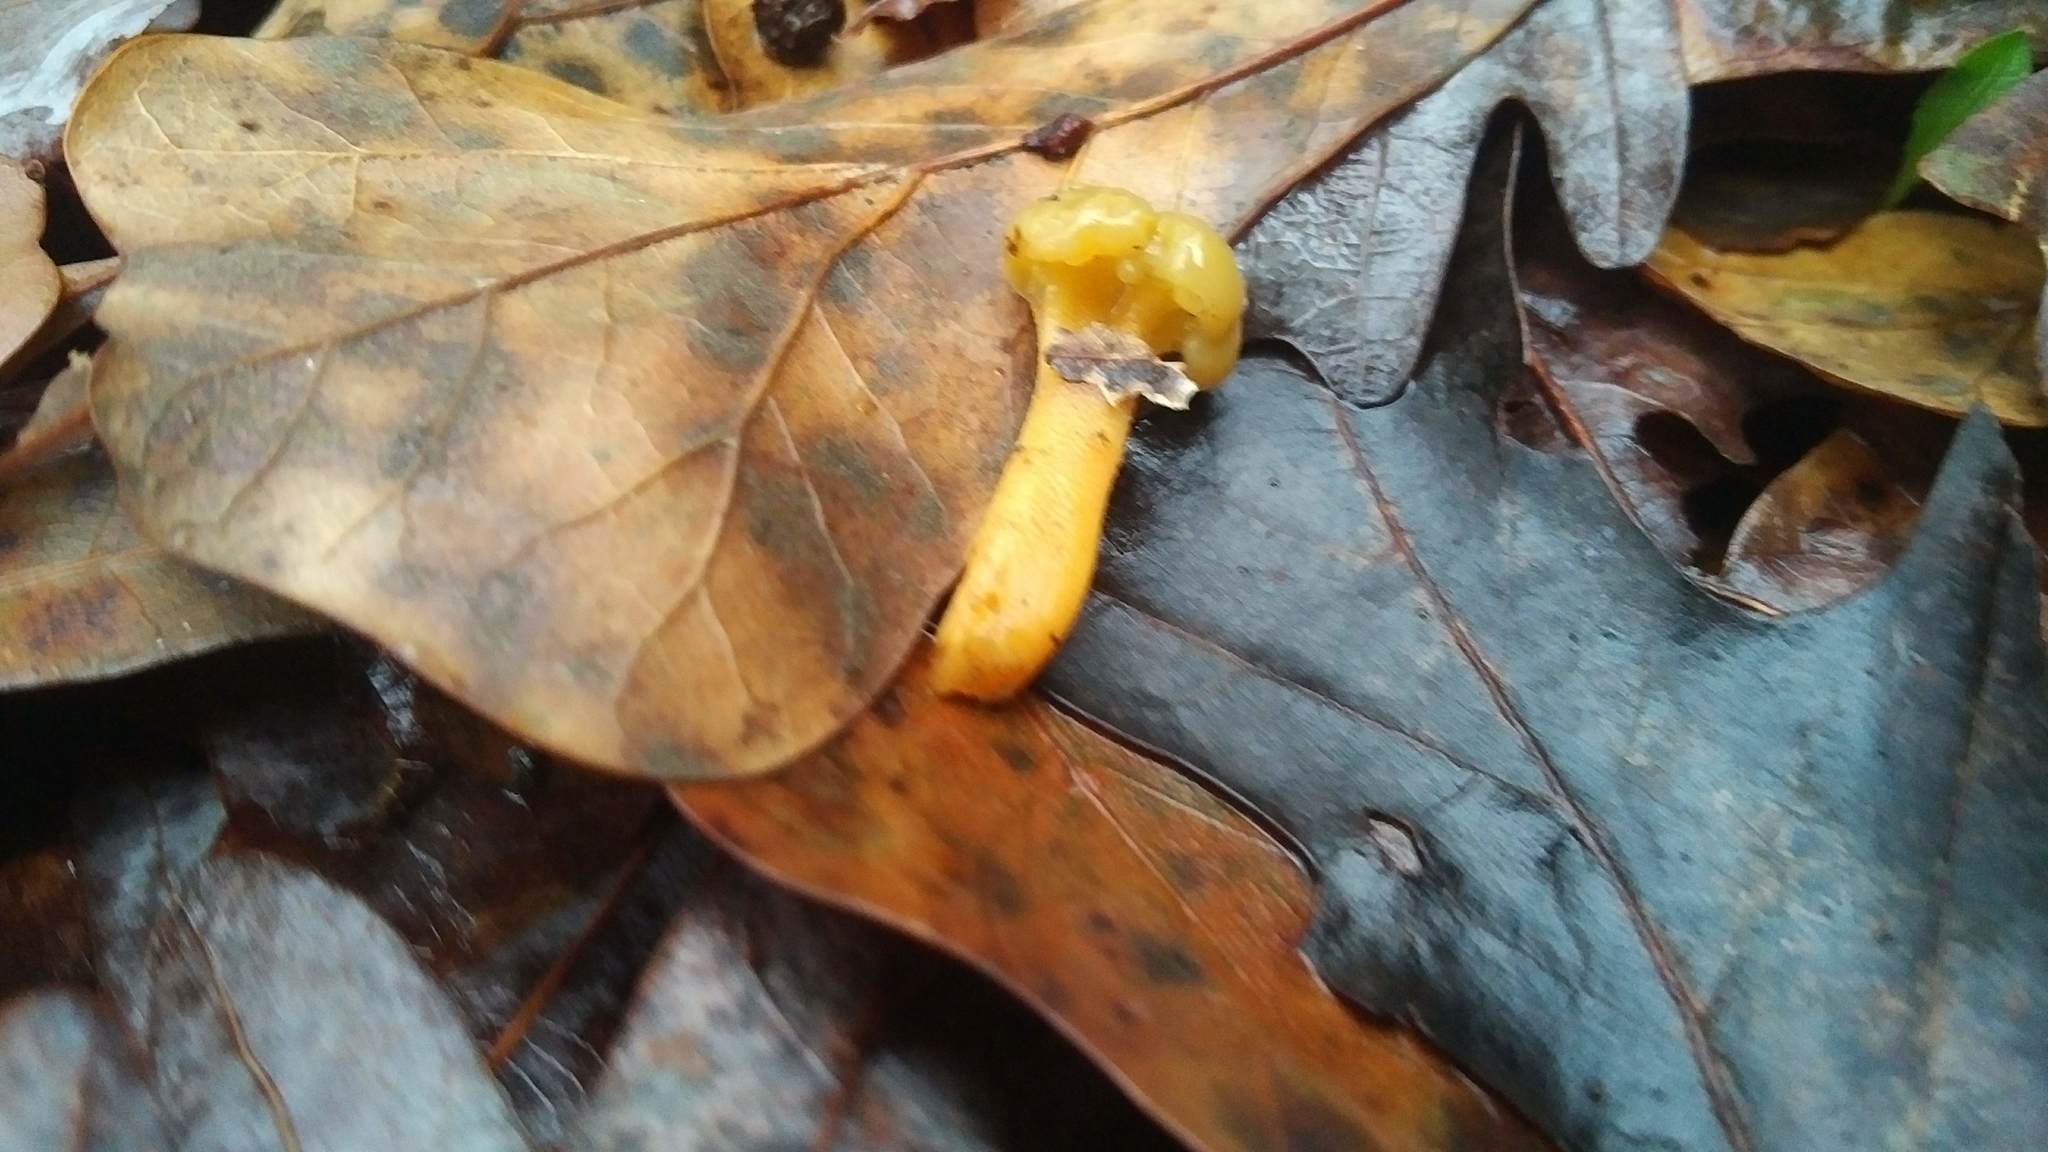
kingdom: Fungi
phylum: Ascomycota
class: Leotiomycetes
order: Leotiales
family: Leotiaceae
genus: Leotia
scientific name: Leotia lubrica
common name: Jellybaby
